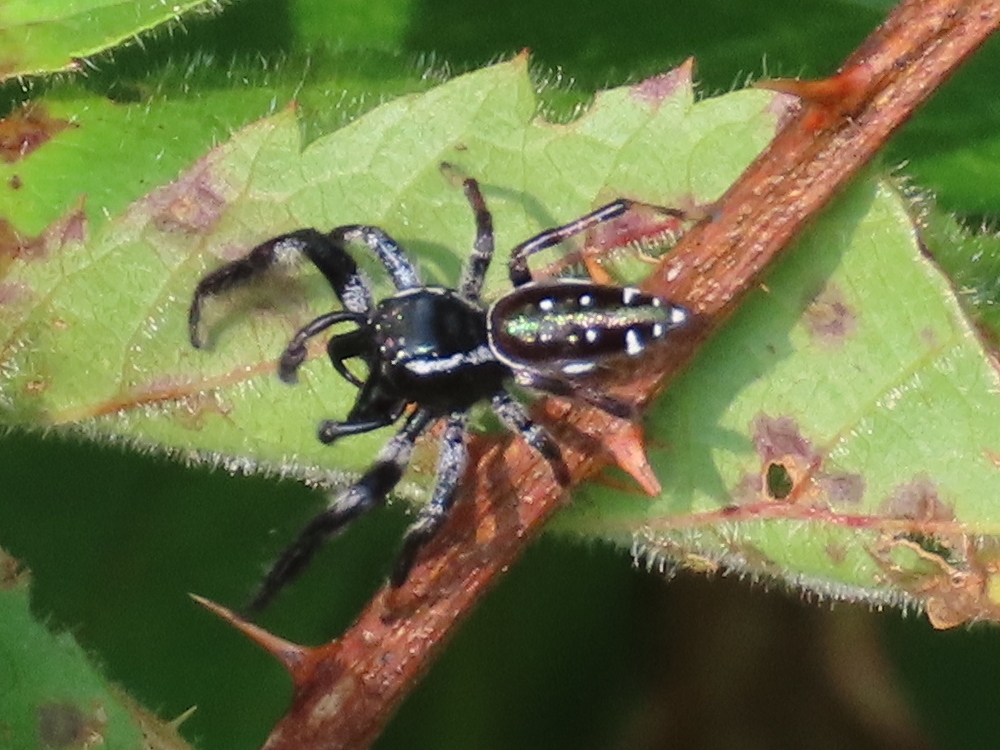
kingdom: Animalia
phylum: Arthropoda
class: Arachnida
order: Araneae
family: Salticidae
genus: Paraphidippus
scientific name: Paraphidippus aurantius
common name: Jumping spiders
